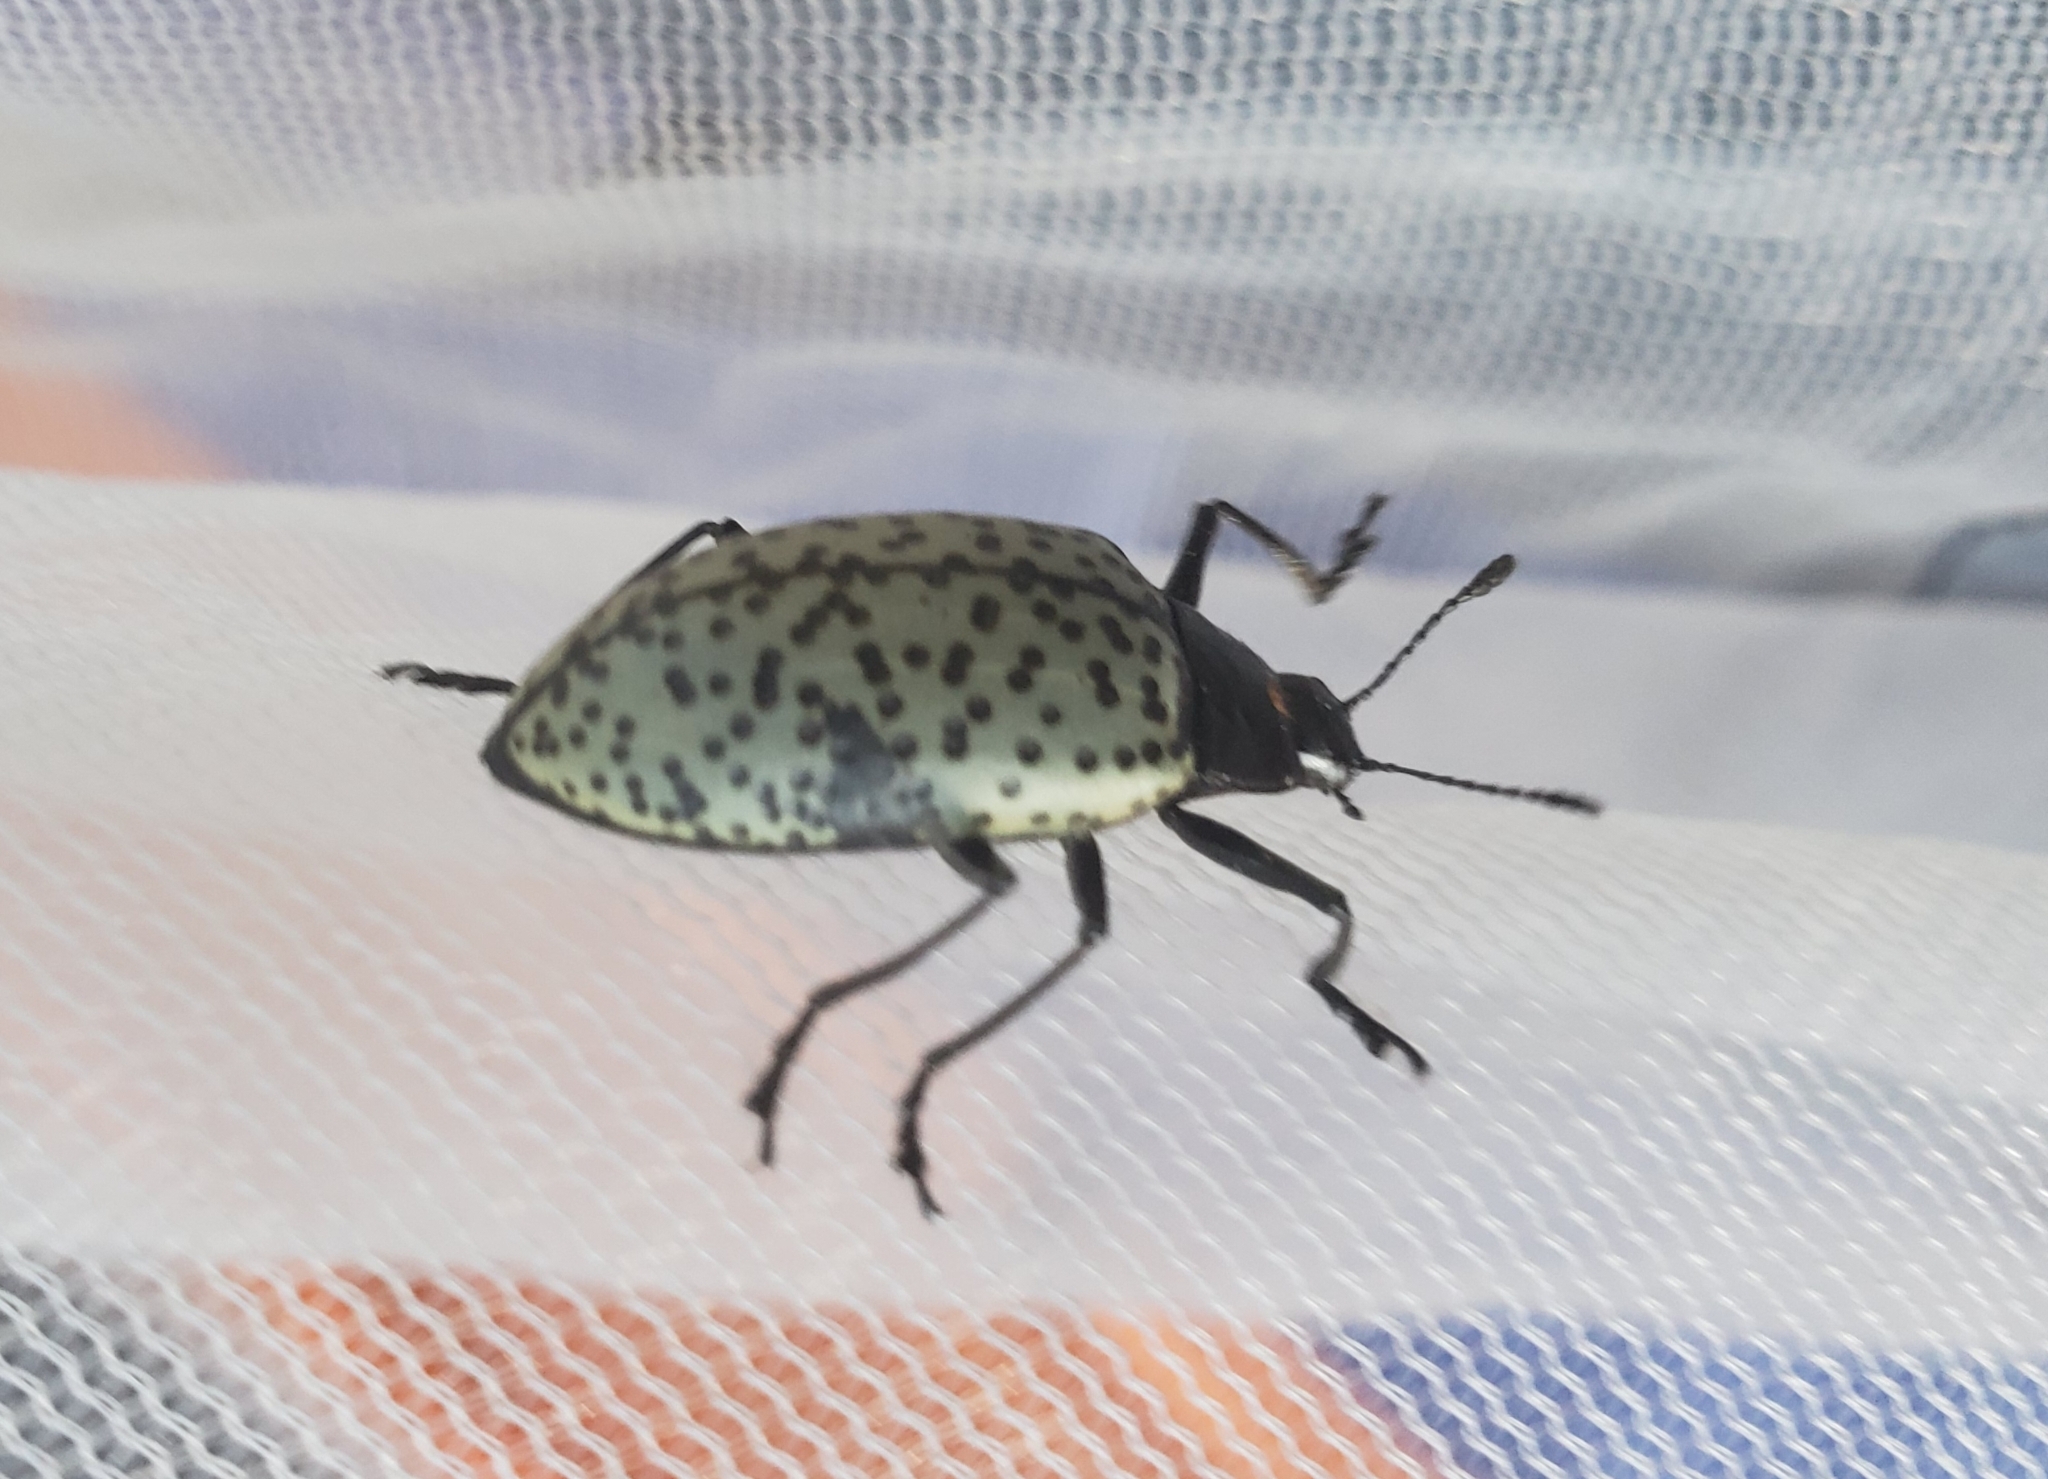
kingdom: Animalia
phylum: Arthropoda
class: Insecta
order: Coleoptera
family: Erotylidae
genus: Gibbifer
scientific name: Gibbifer californicus
